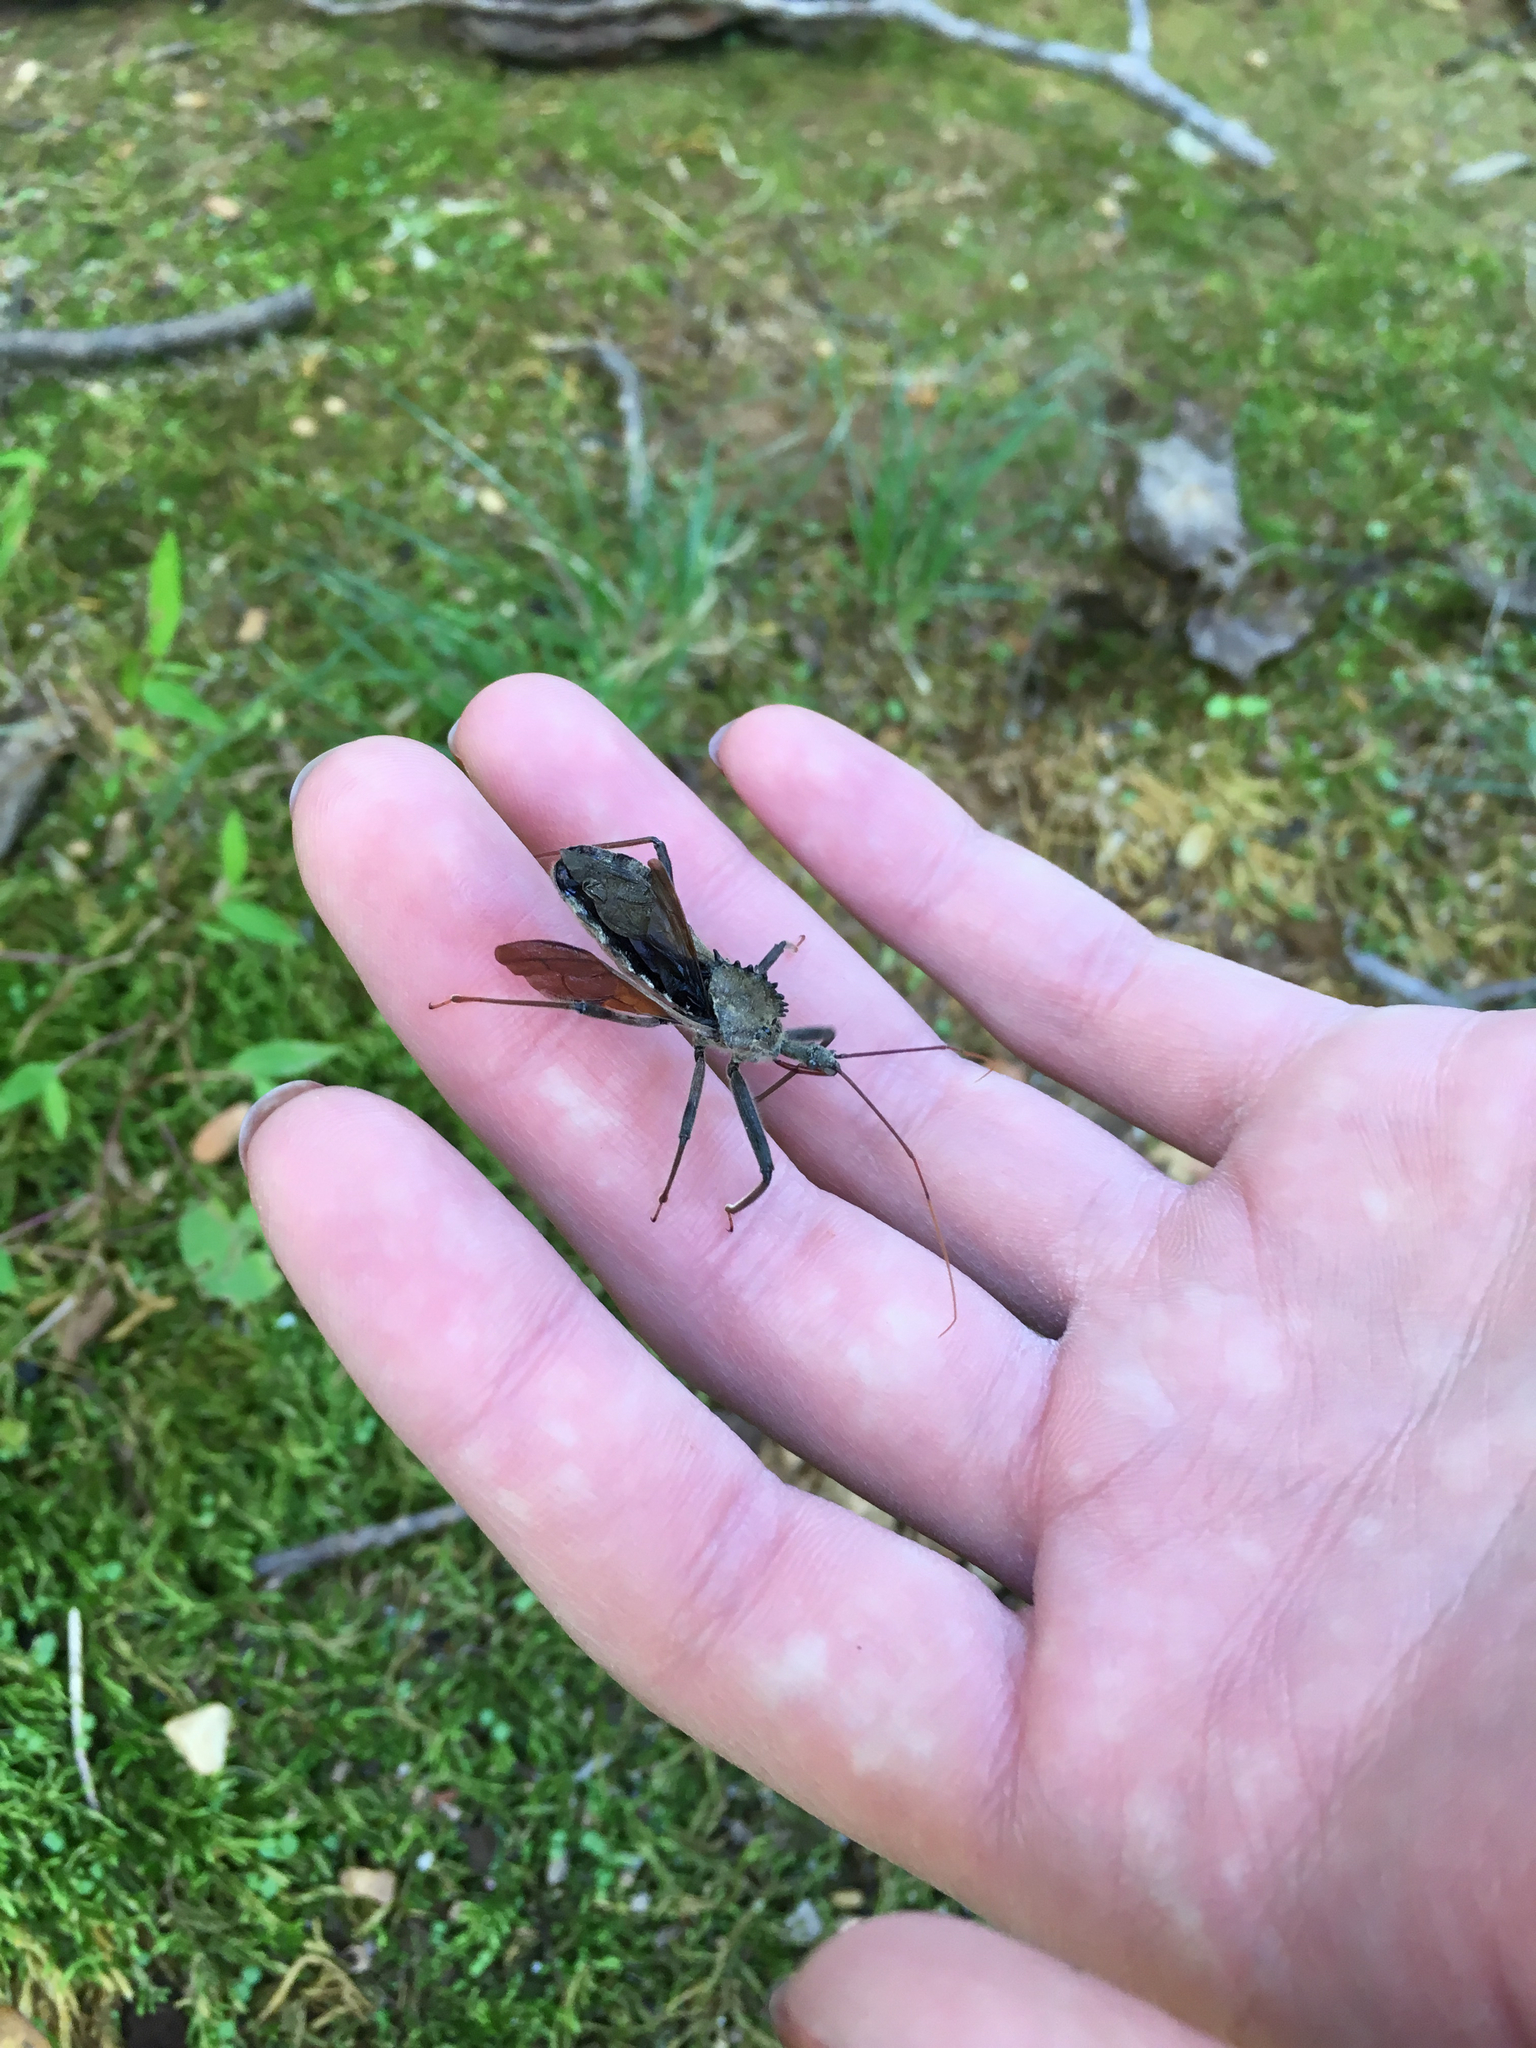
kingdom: Animalia
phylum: Arthropoda
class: Insecta
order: Hemiptera
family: Reduviidae
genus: Arilus
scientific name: Arilus cristatus
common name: North american wheel bug
